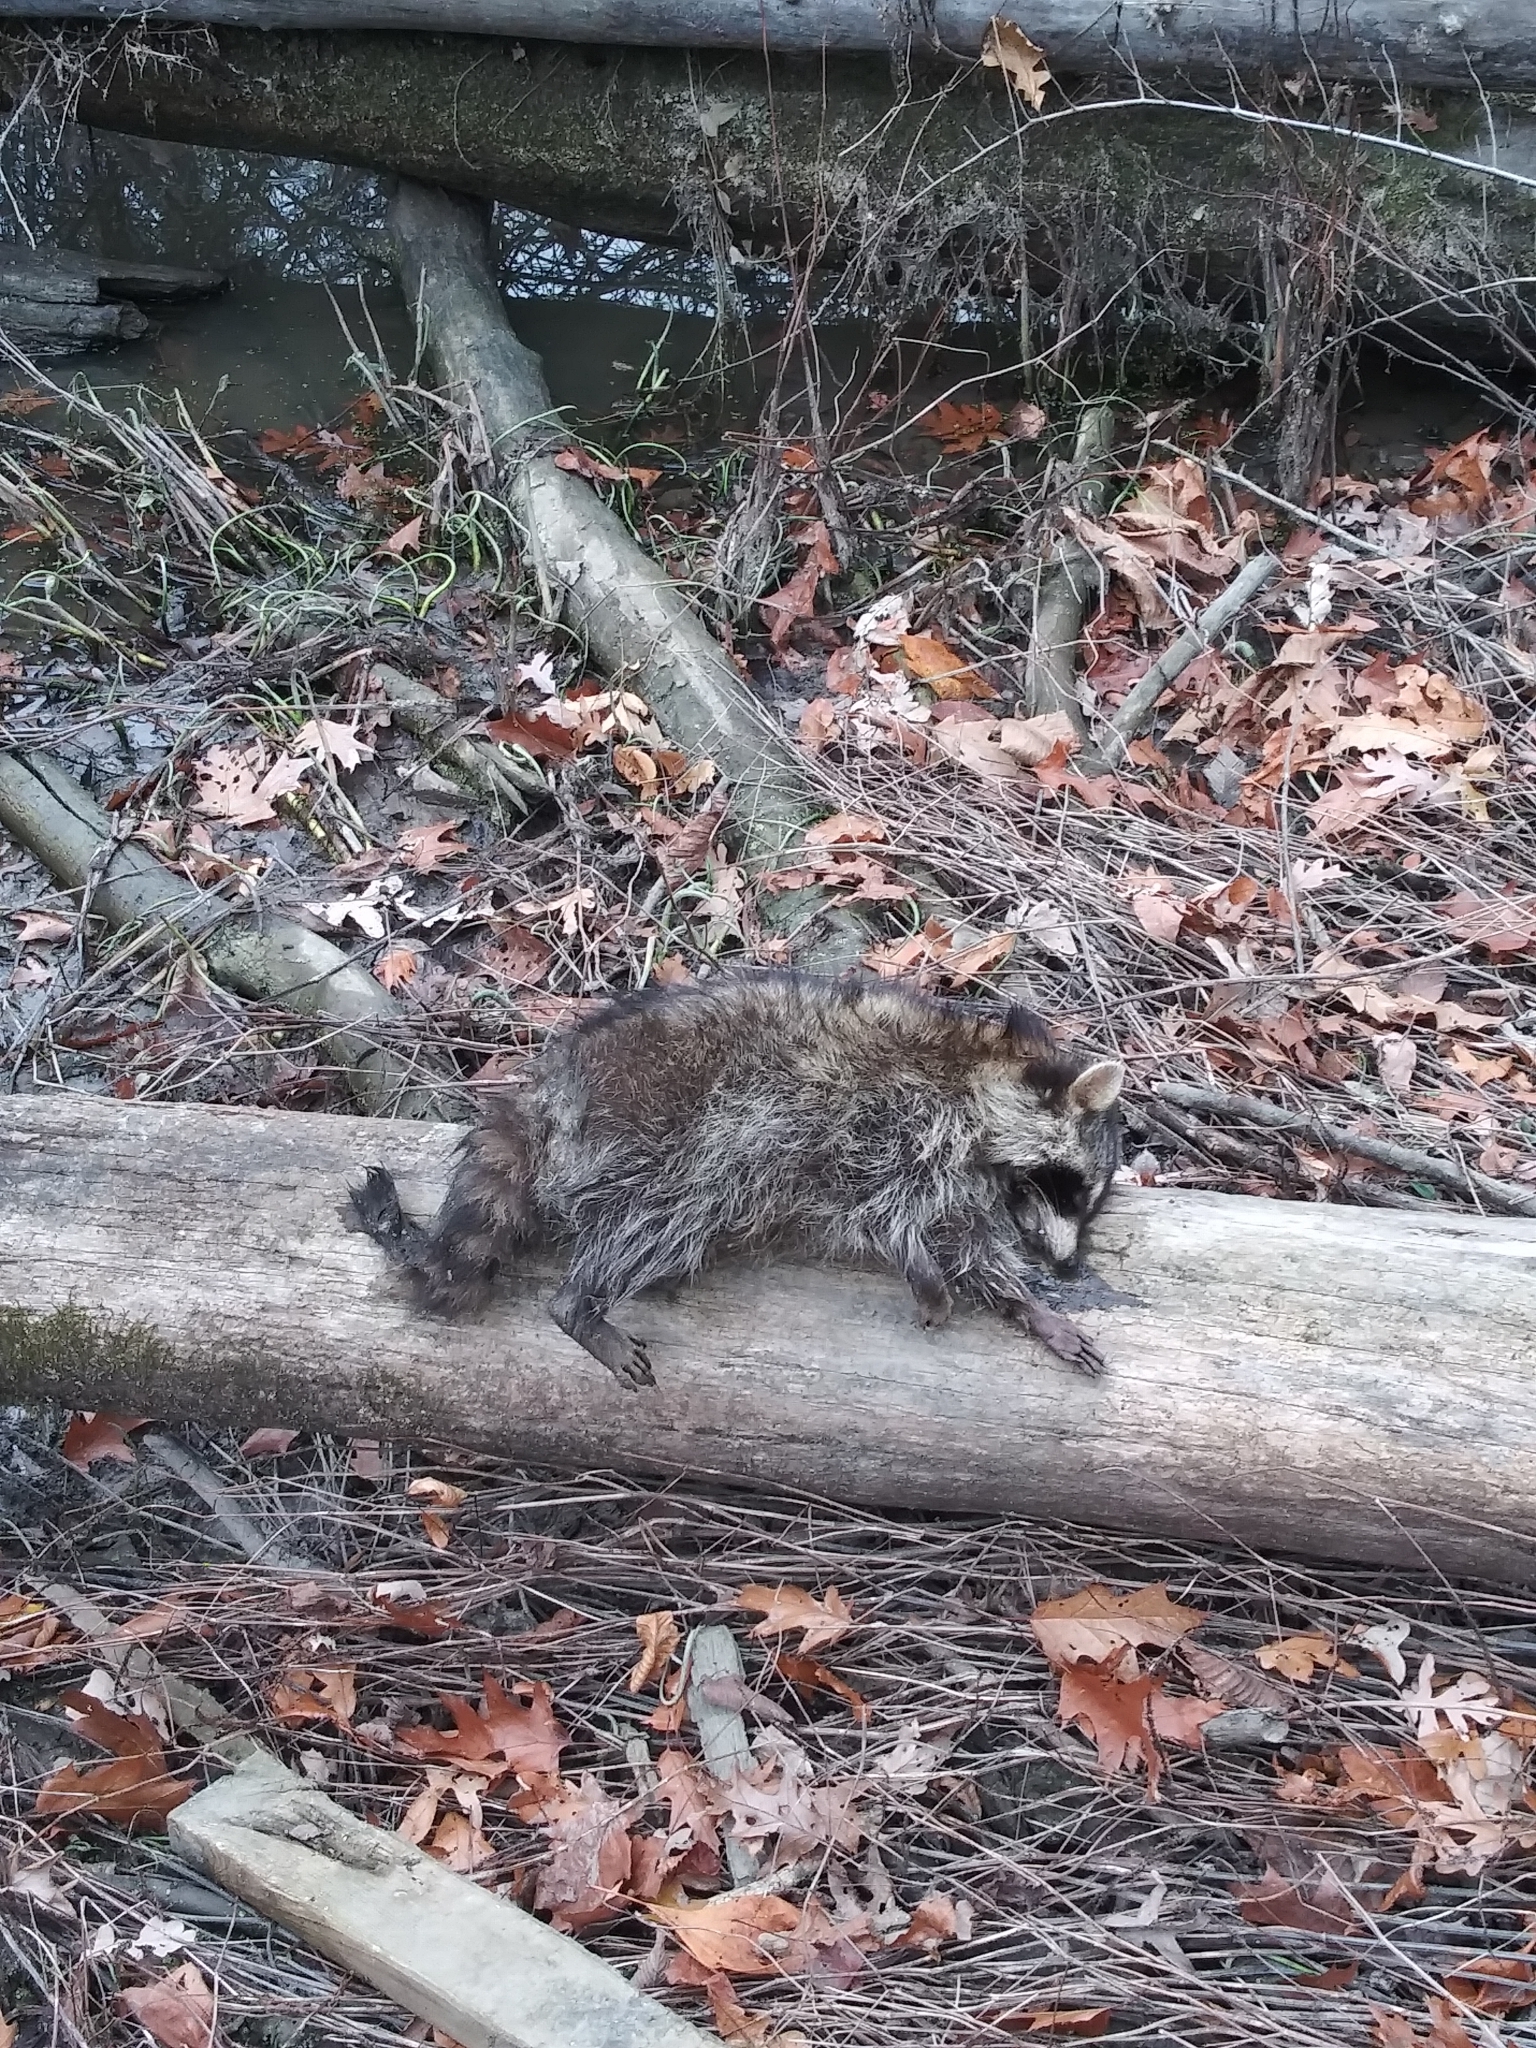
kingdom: Animalia
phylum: Chordata
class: Mammalia
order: Carnivora
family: Procyonidae
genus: Procyon
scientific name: Procyon lotor
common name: Raccoon
